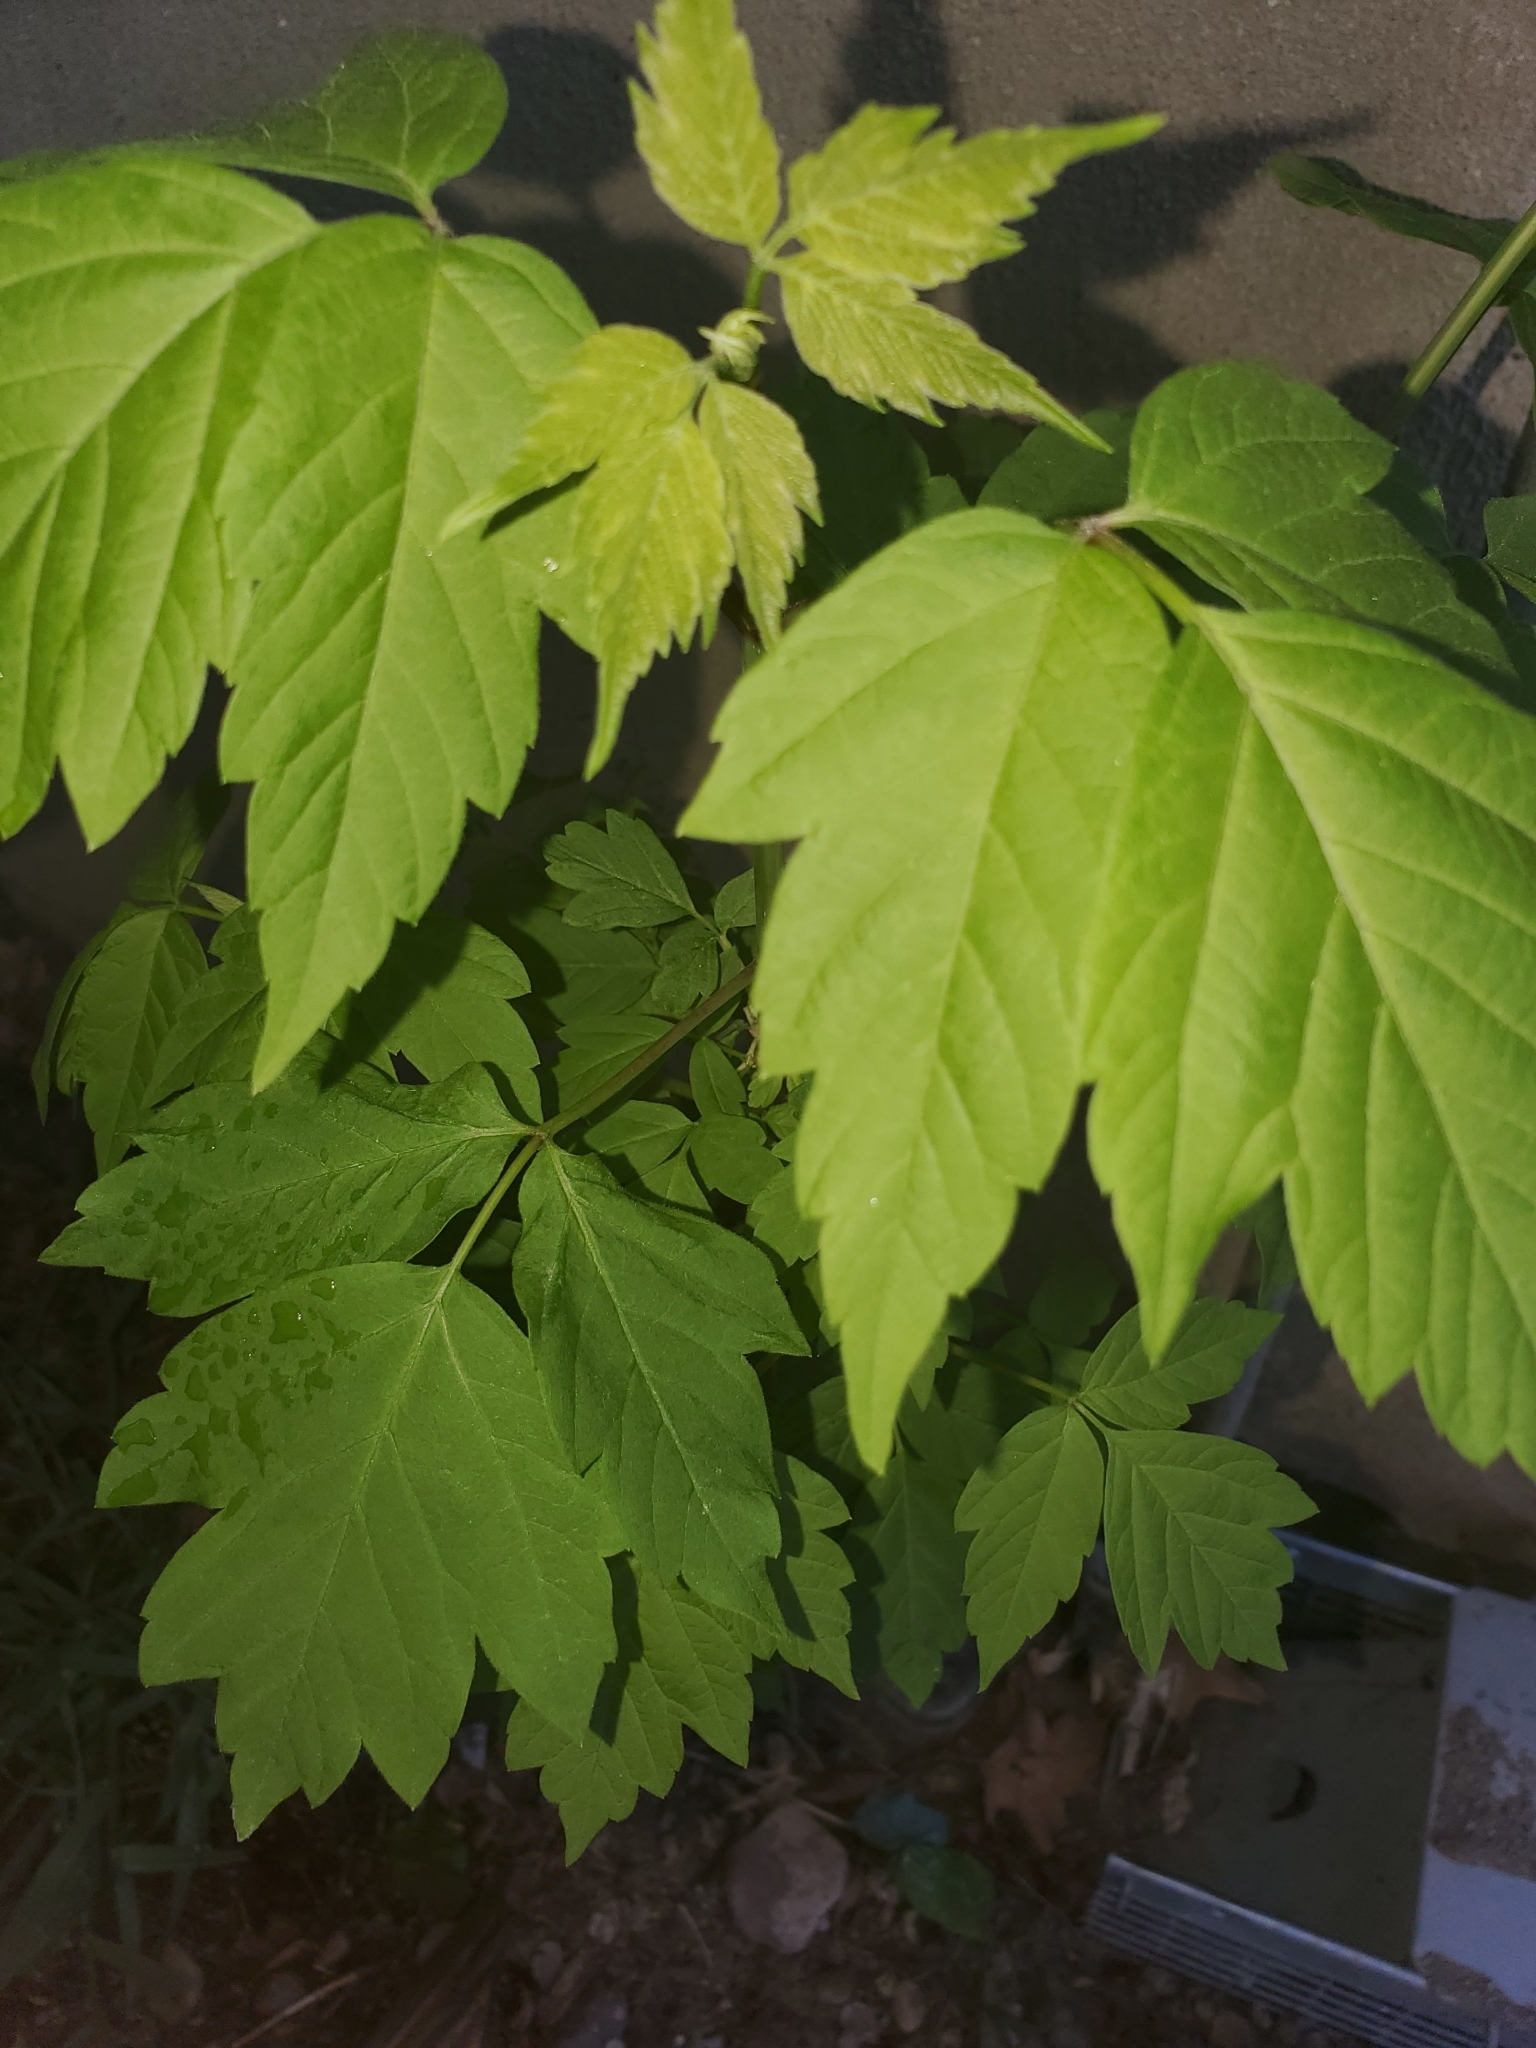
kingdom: Plantae
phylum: Tracheophyta
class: Magnoliopsida
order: Sapindales
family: Sapindaceae
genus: Acer
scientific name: Acer negundo
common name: Ashleaf maple
